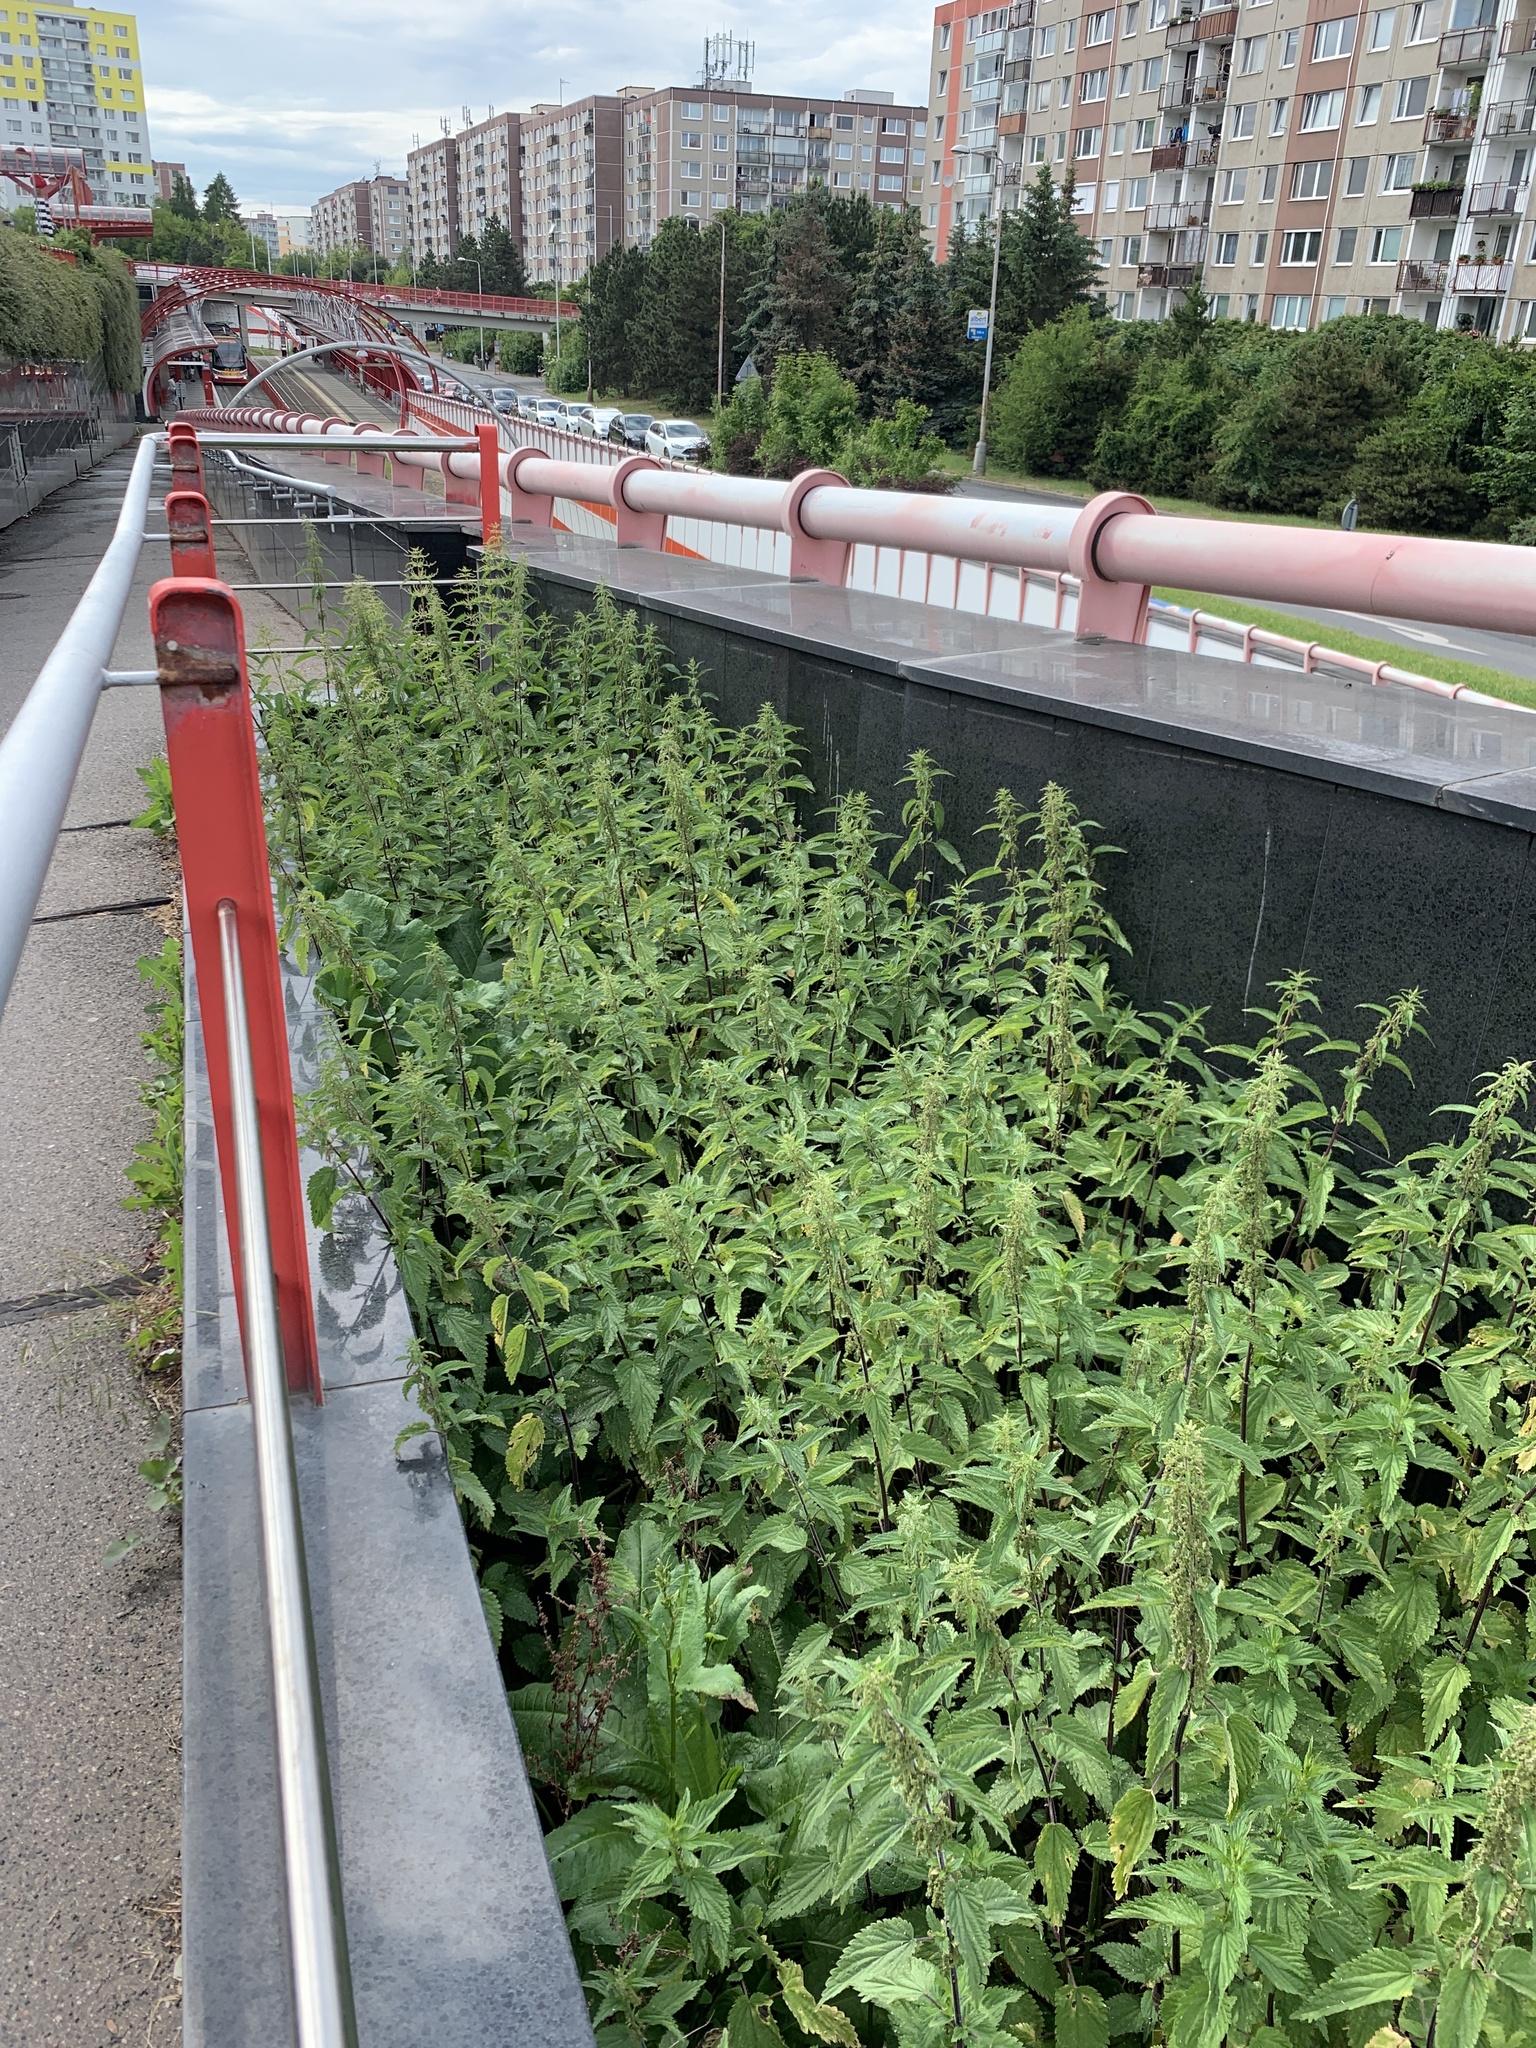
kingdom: Plantae
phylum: Tracheophyta
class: Magnoliopsida
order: Rosales
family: Urticaceae
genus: Urtica
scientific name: Urtica dioica
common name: Common nettle
